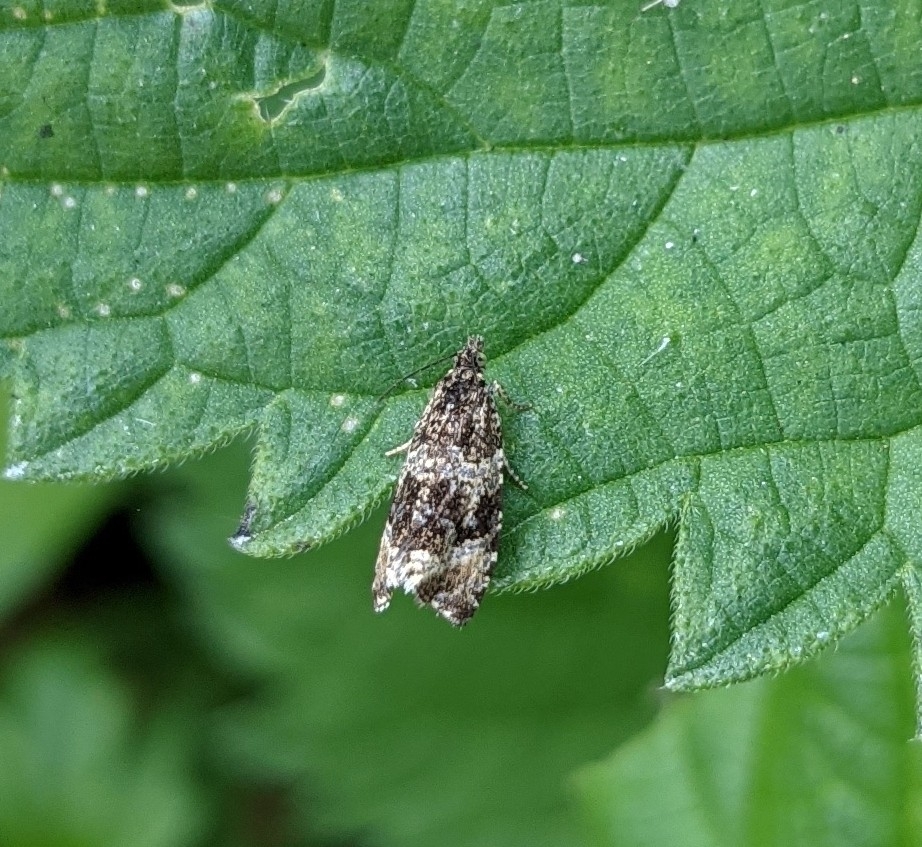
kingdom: Animalia
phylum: Arthropoda
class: Insecta
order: Lepidoptera
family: Tortricidae
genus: Syricoris
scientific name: Syricoris lacunana
